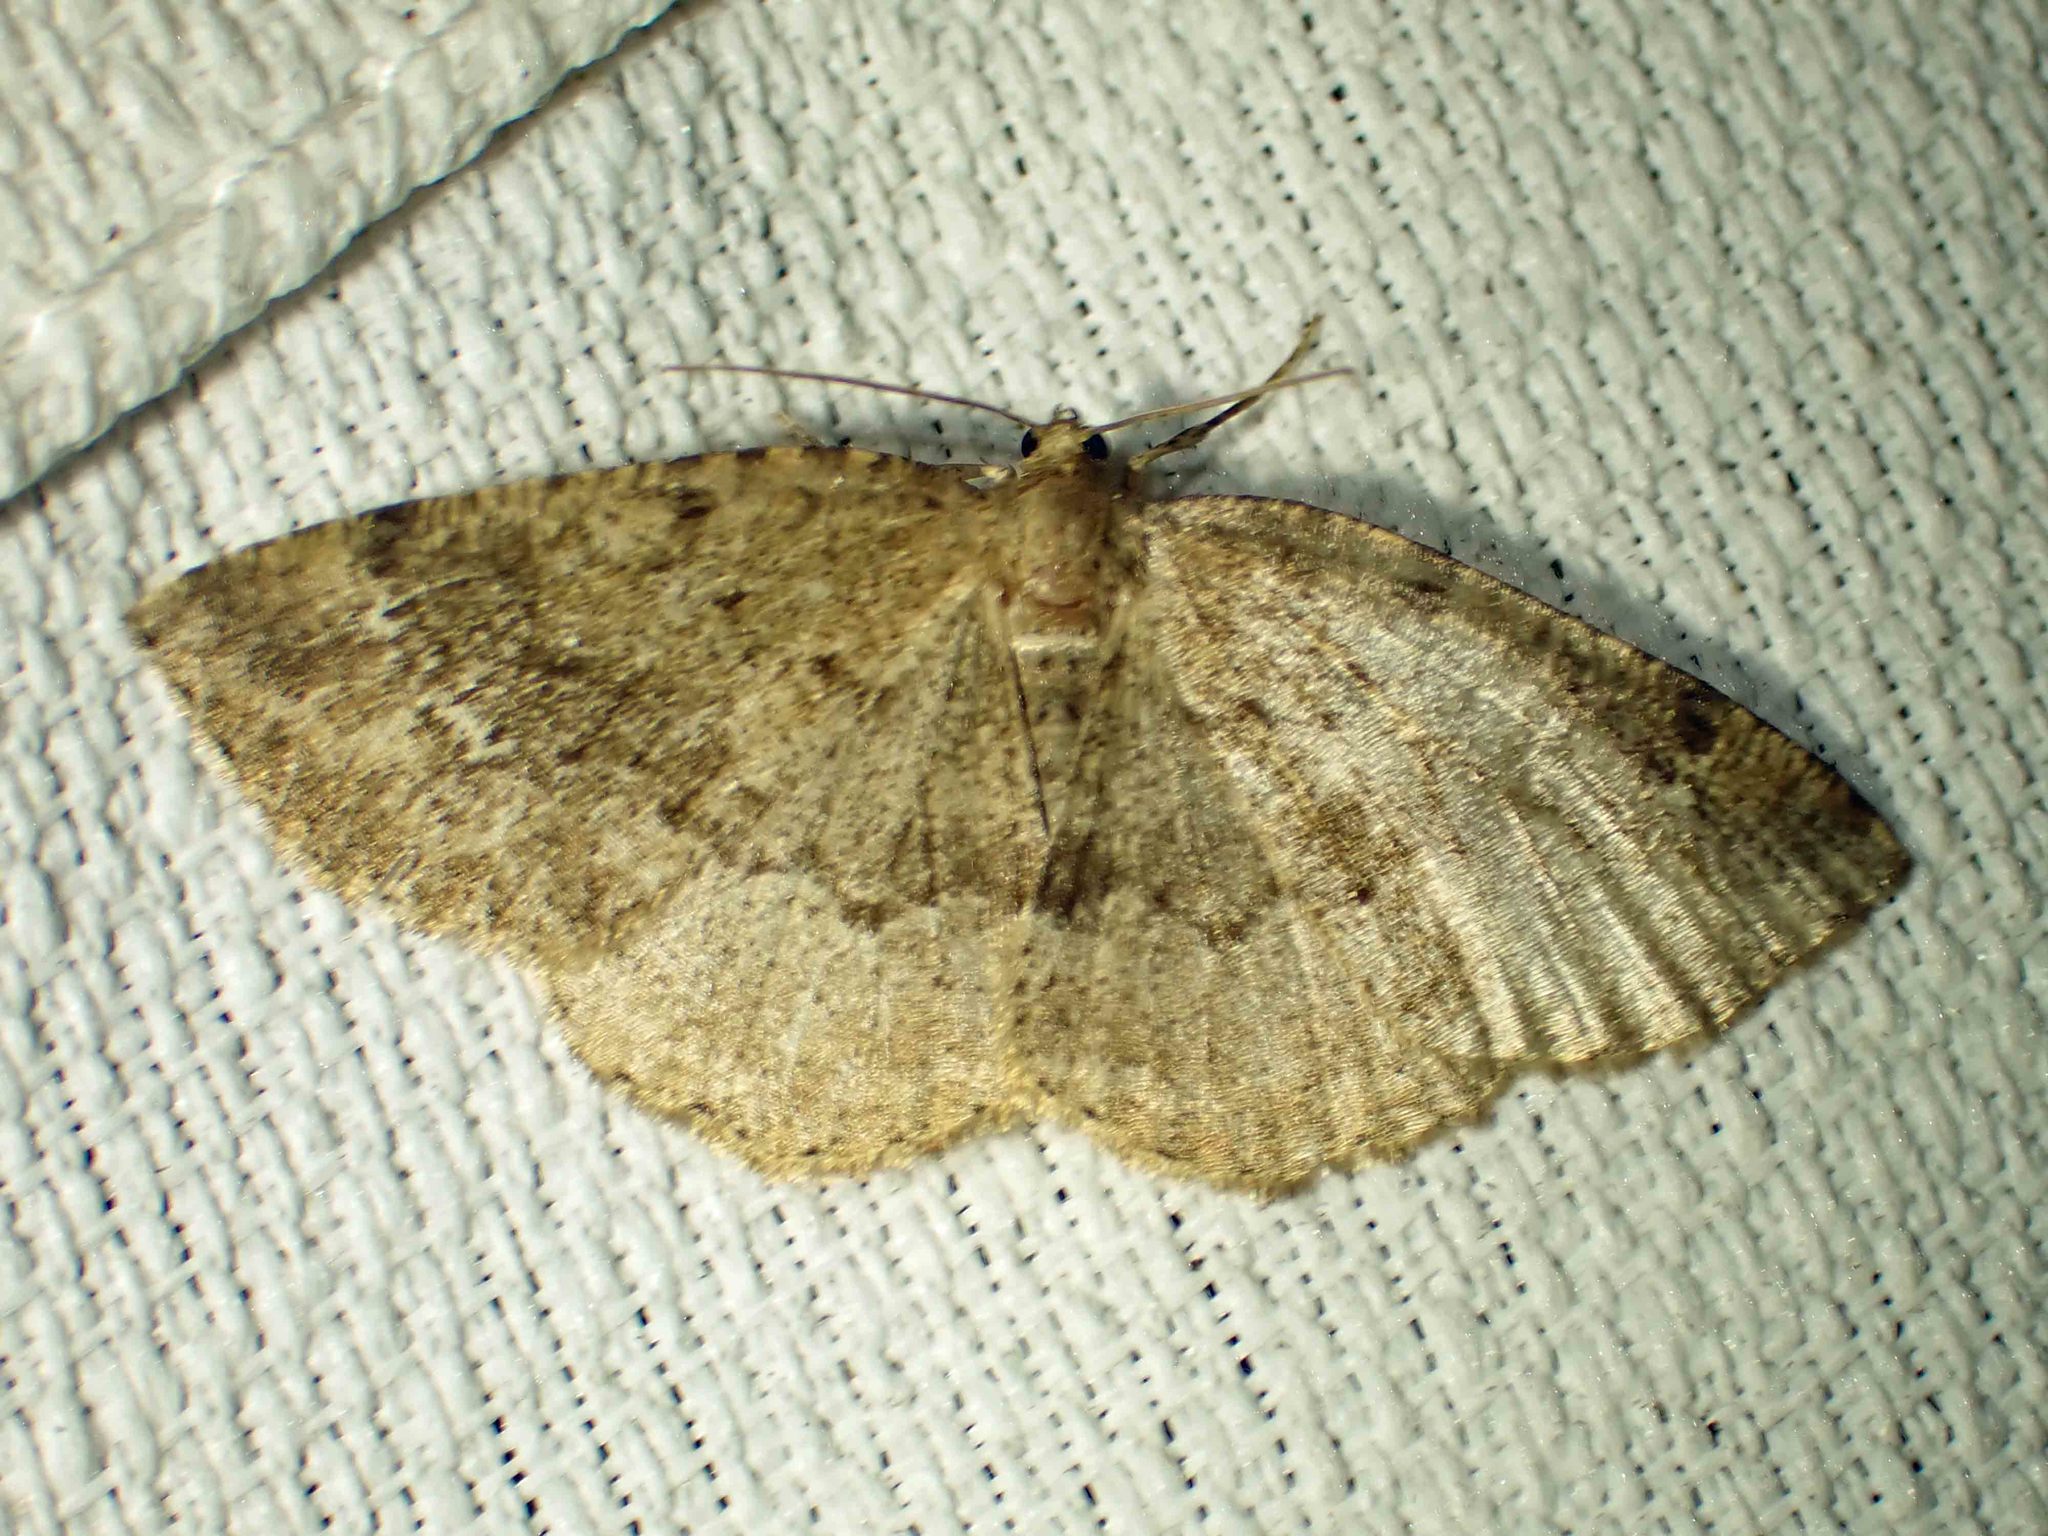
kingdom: Animalia
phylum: Arthropoda
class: Insecta
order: Lepidoptera
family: Geometridae
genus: Homochlodes
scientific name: Homochlodes fritillaria
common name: Pale homochlodes
